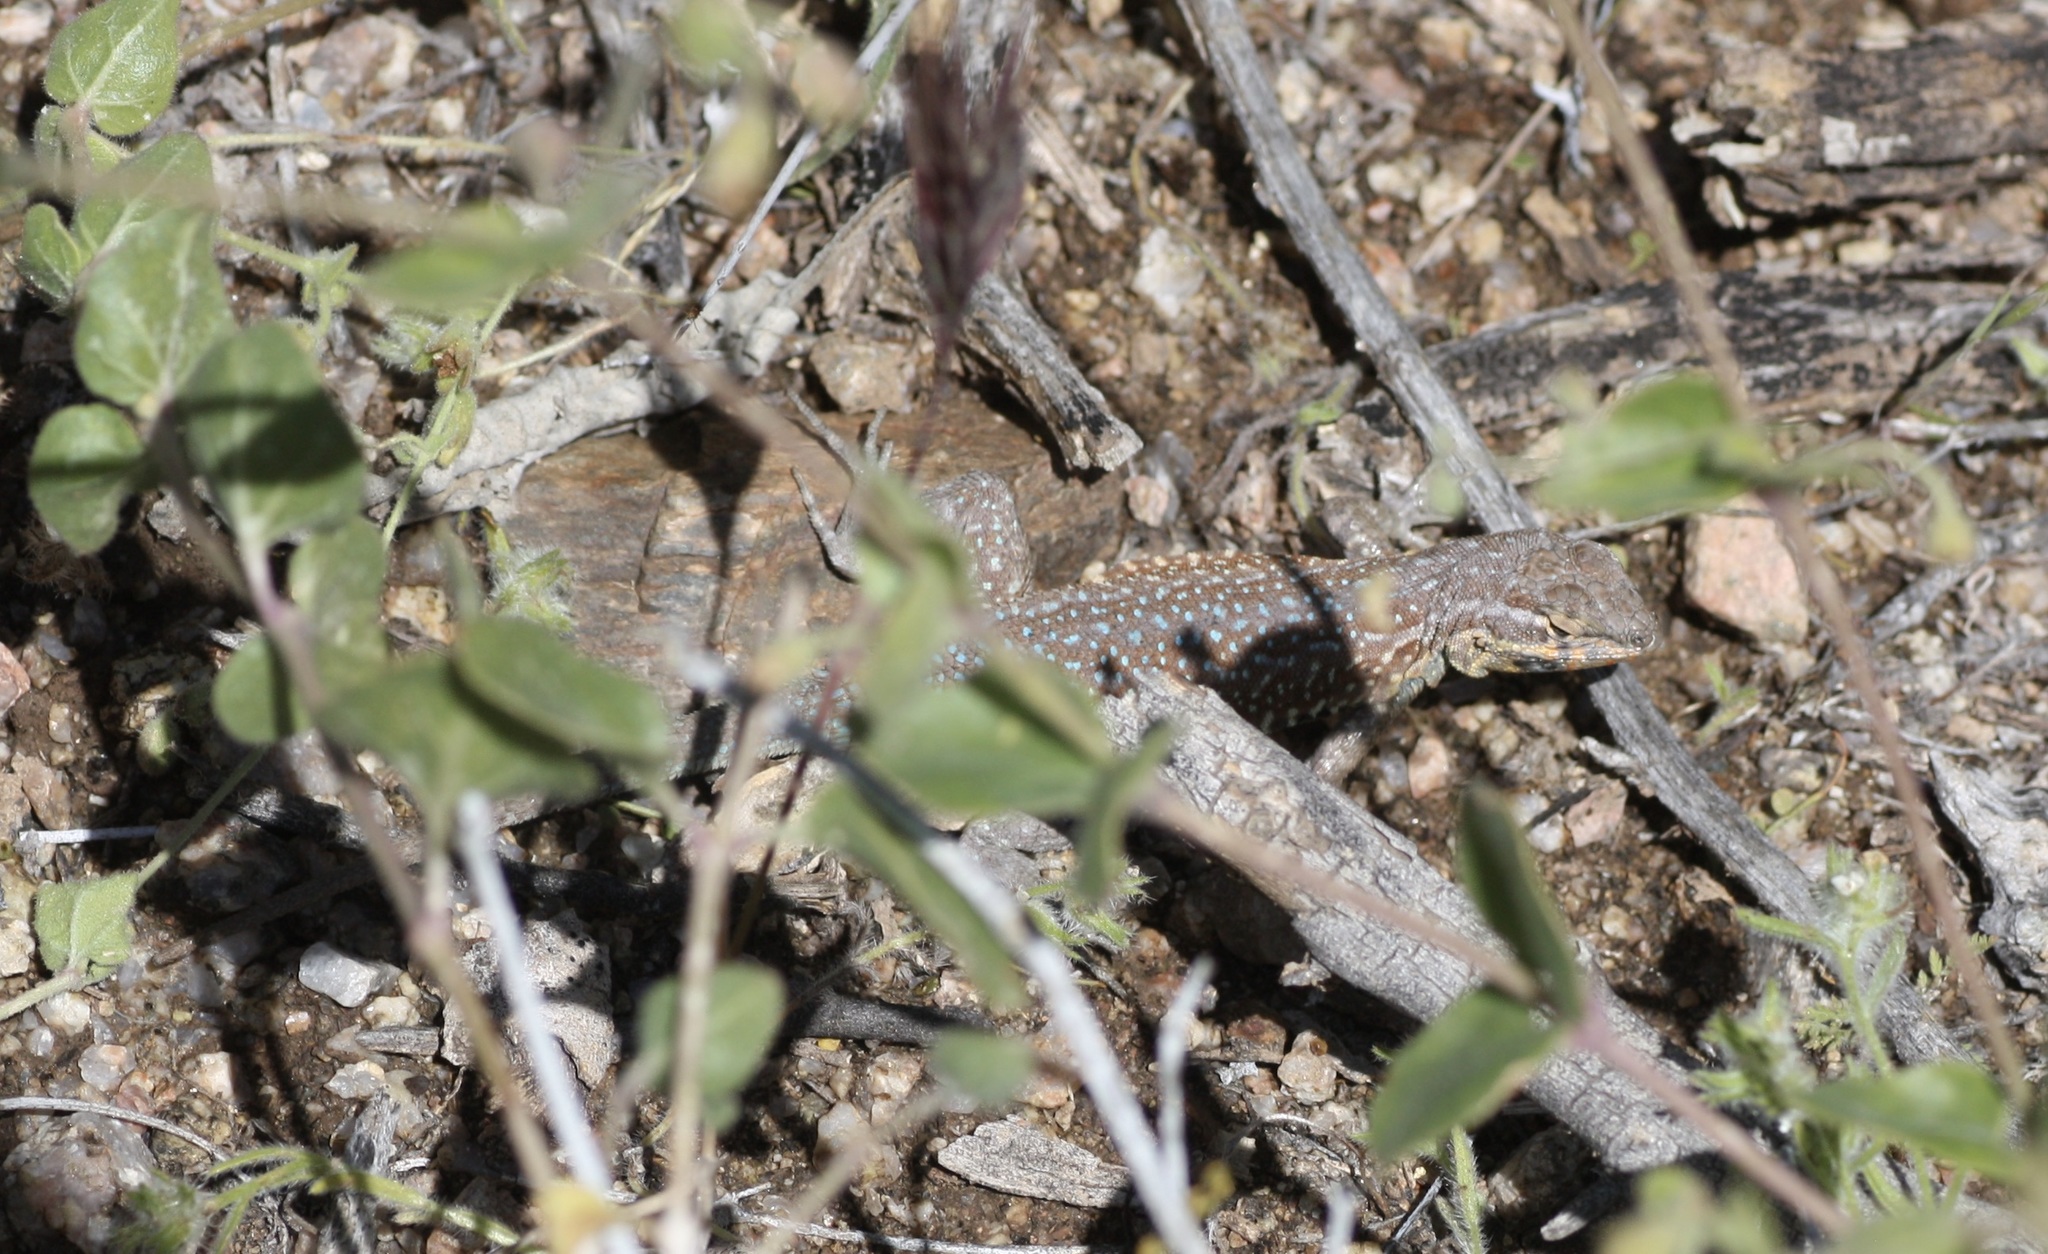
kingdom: Animalia
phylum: Chordata
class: Squamata
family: Phrynosomatidae
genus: Uta
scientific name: Uta stansburiana
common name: Side-blotched lizard
